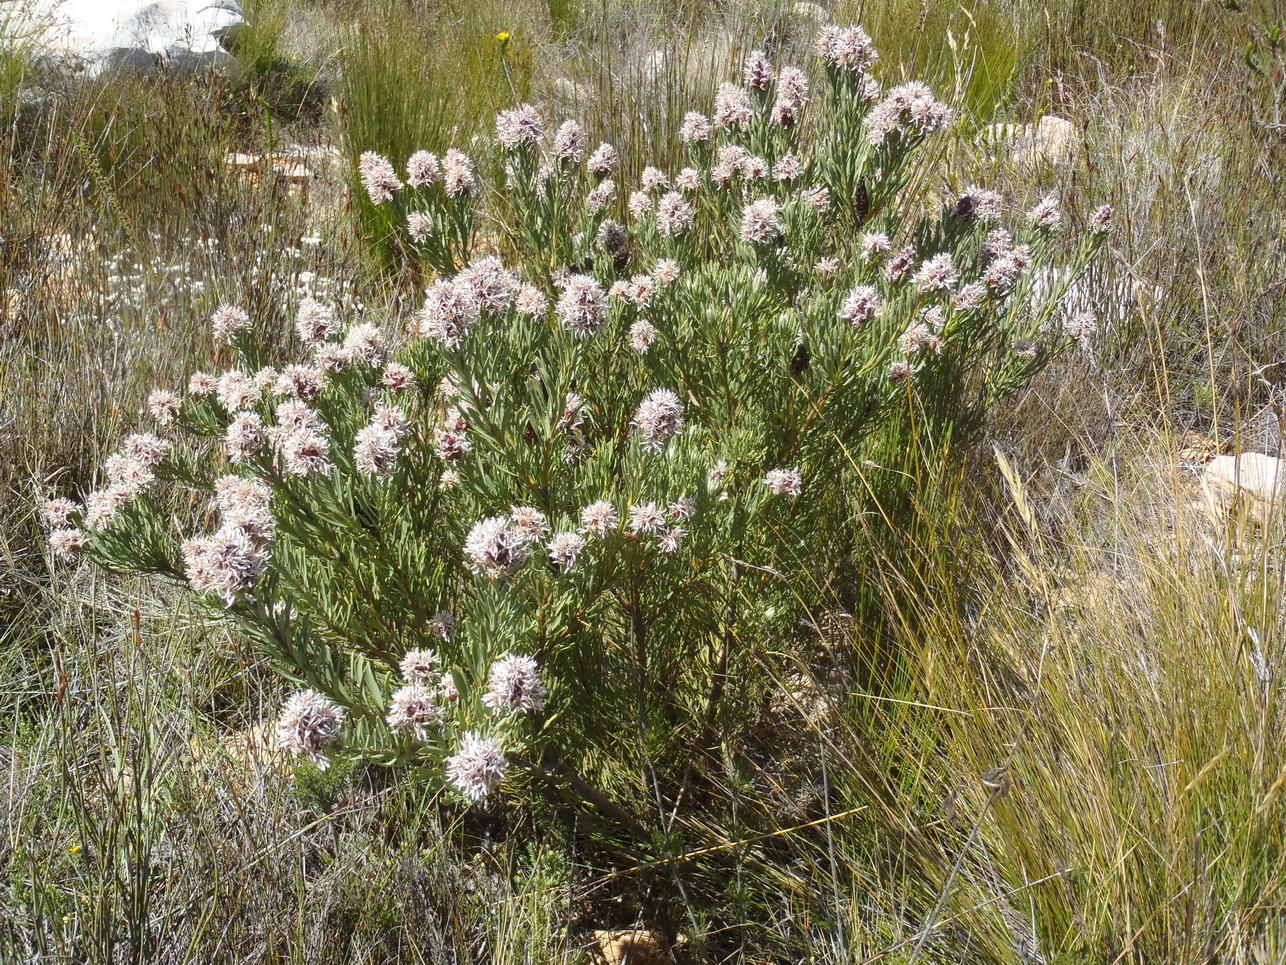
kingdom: Plantae
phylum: Tracheophyta
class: Magnoliopsida
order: Proteales
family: Proteaceae
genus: Paranomus
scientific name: Paranomus dregei
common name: Scented sceptre
